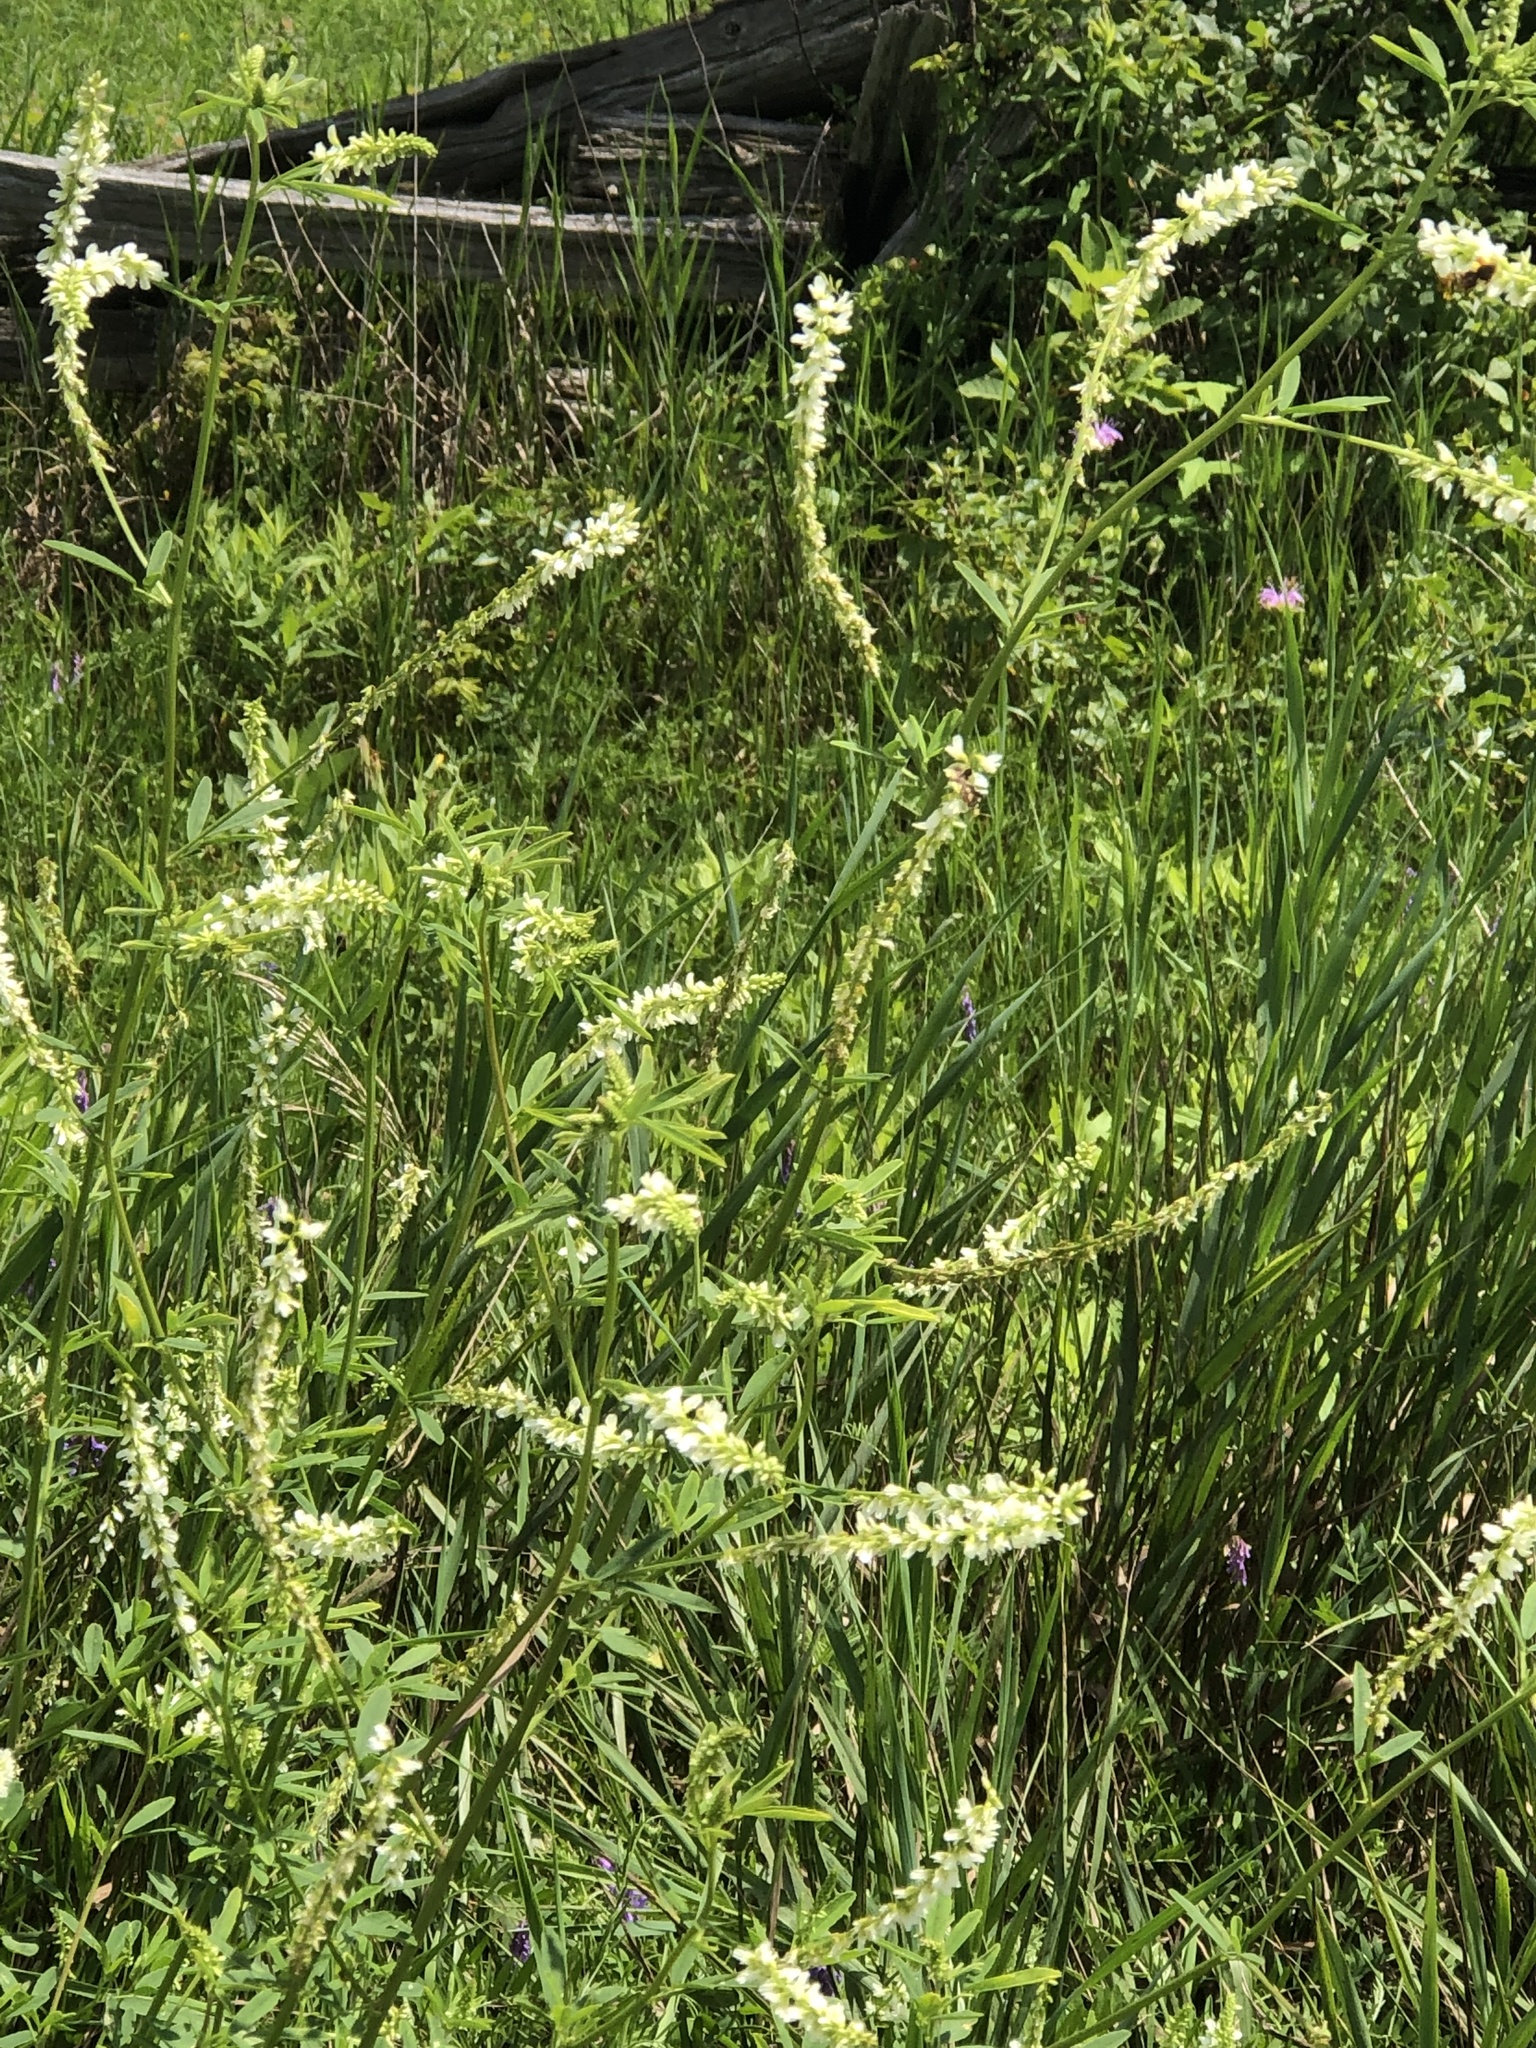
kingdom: Plantae
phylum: Tracheophyta
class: Magnoliopsida
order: Fabales
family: Fabaceae
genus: Melilotus
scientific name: Melilotus albus
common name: White melilot
